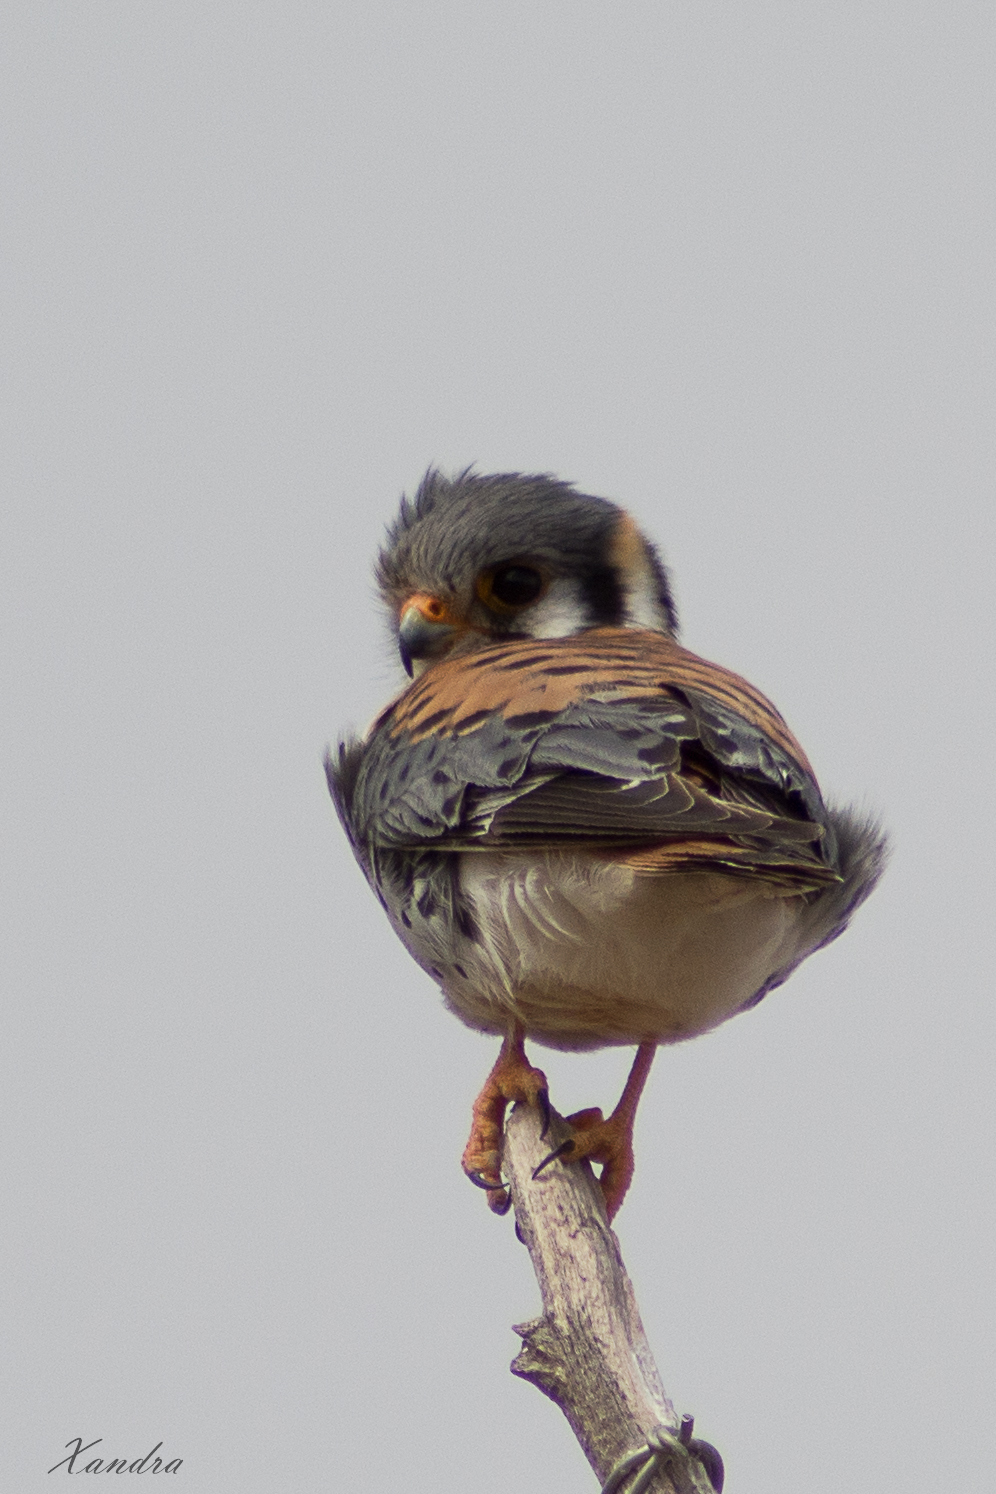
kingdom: Animalia
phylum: Chordata
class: Aves
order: Falconiformes
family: Falconidae
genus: Falco
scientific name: Falco sparverius
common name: American kestrel
